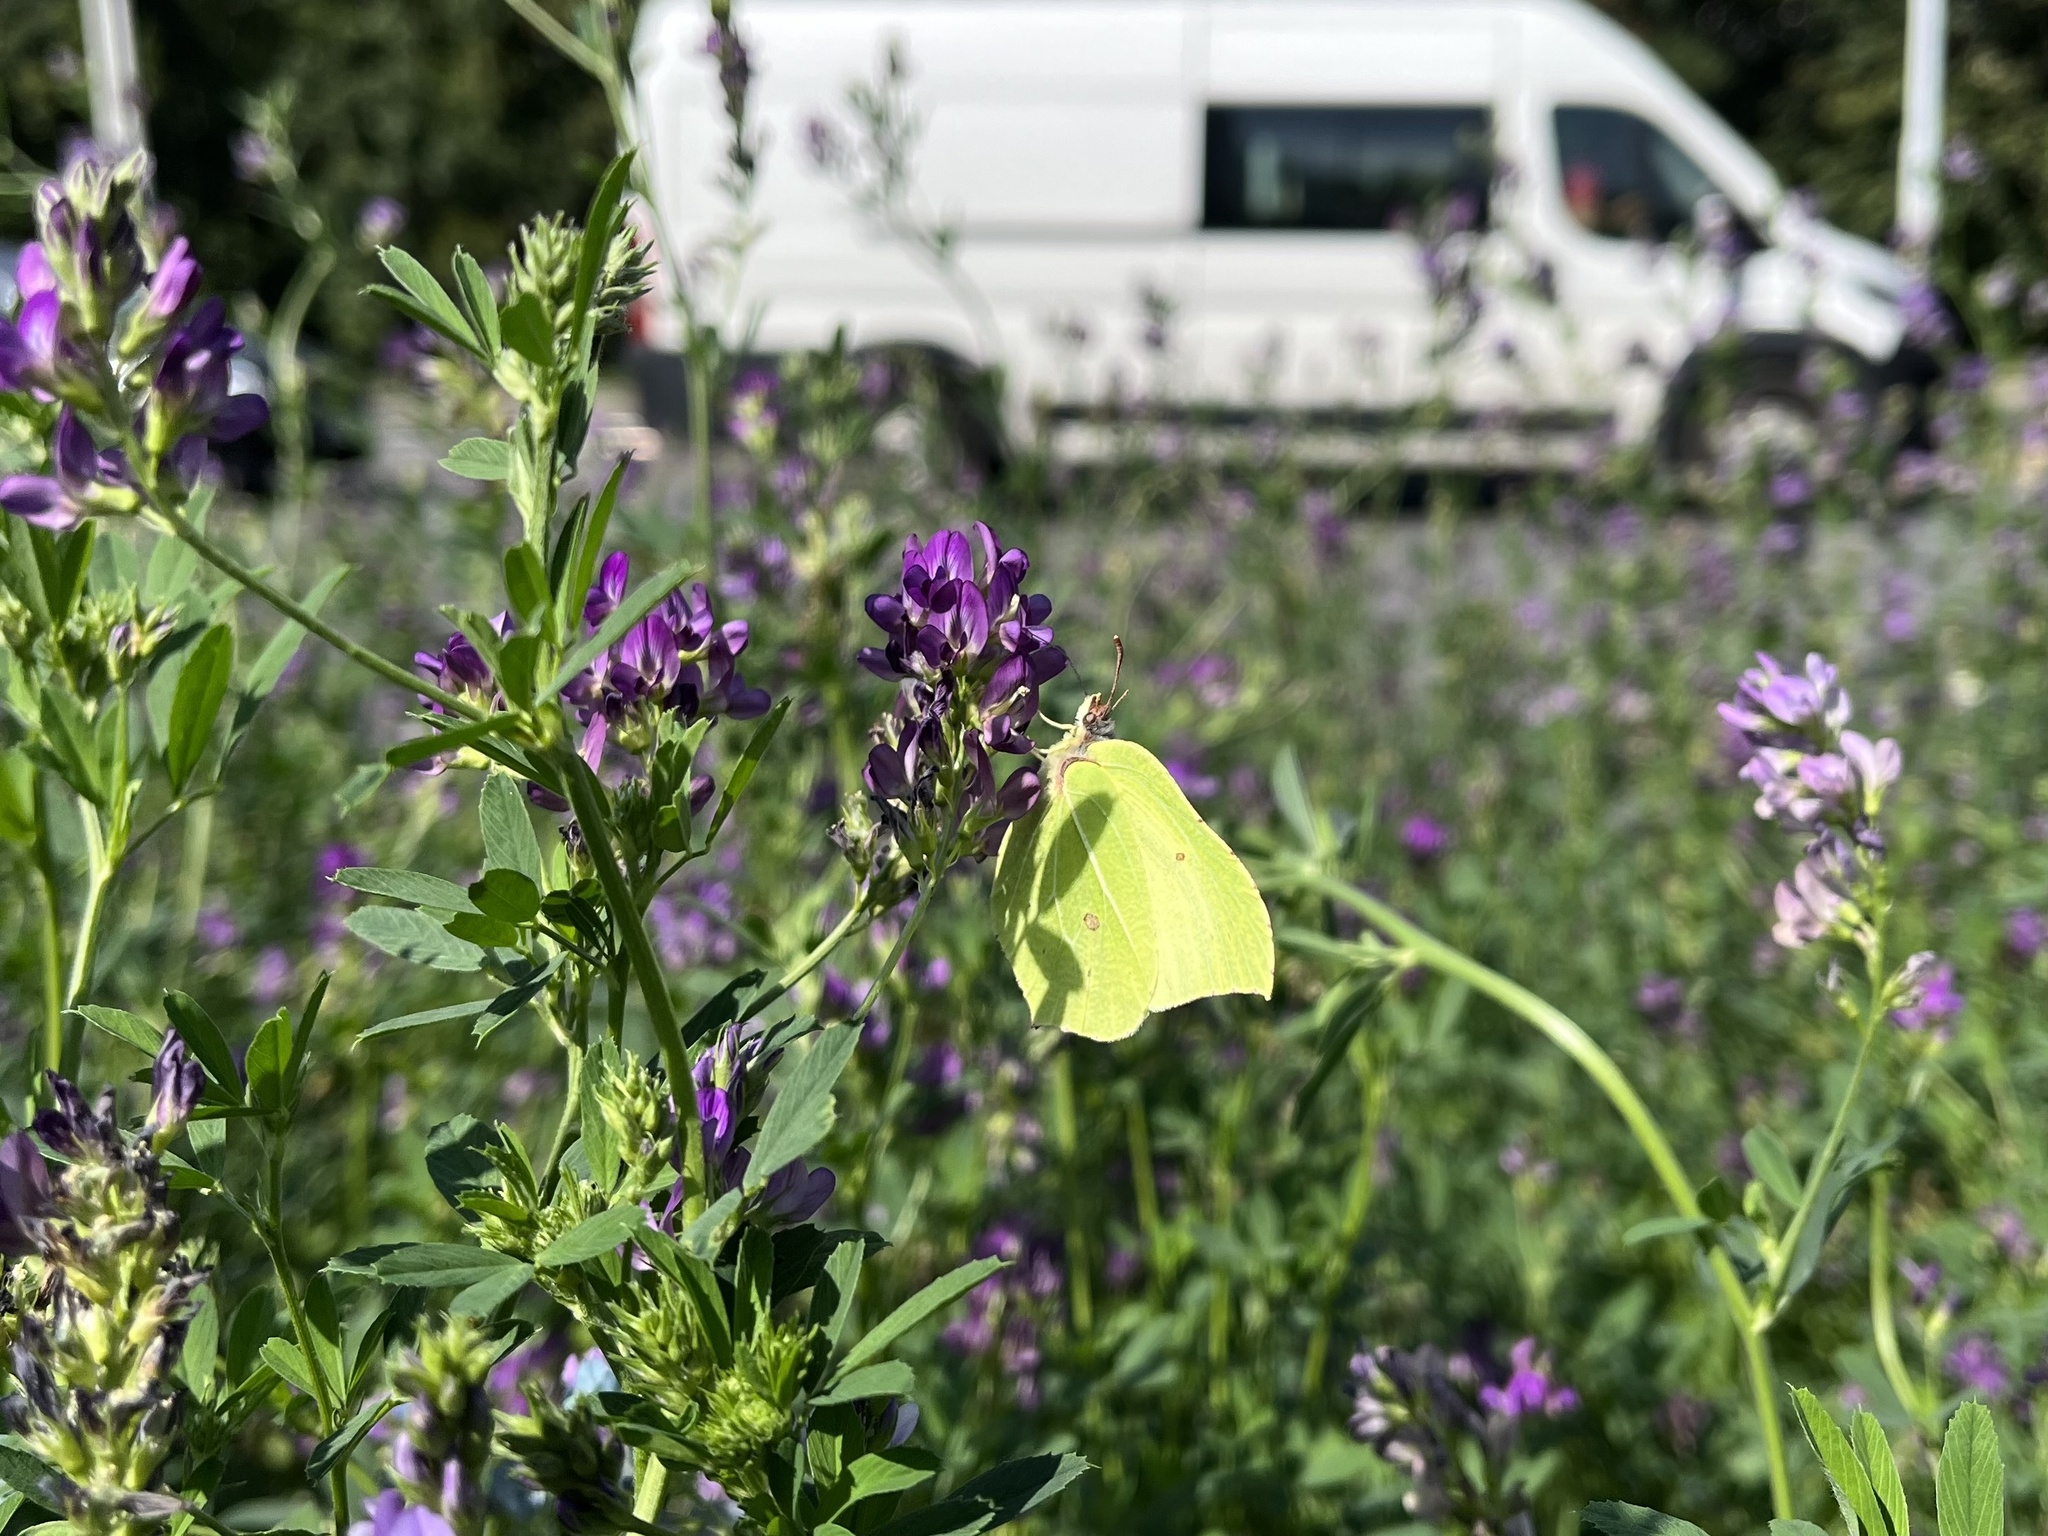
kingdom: Animalia
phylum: Arthropoda
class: Insecta
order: Lepidoptera
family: Pieridae
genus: Gonepteryx
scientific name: Gonepteryx rhamni
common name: Brimstone
